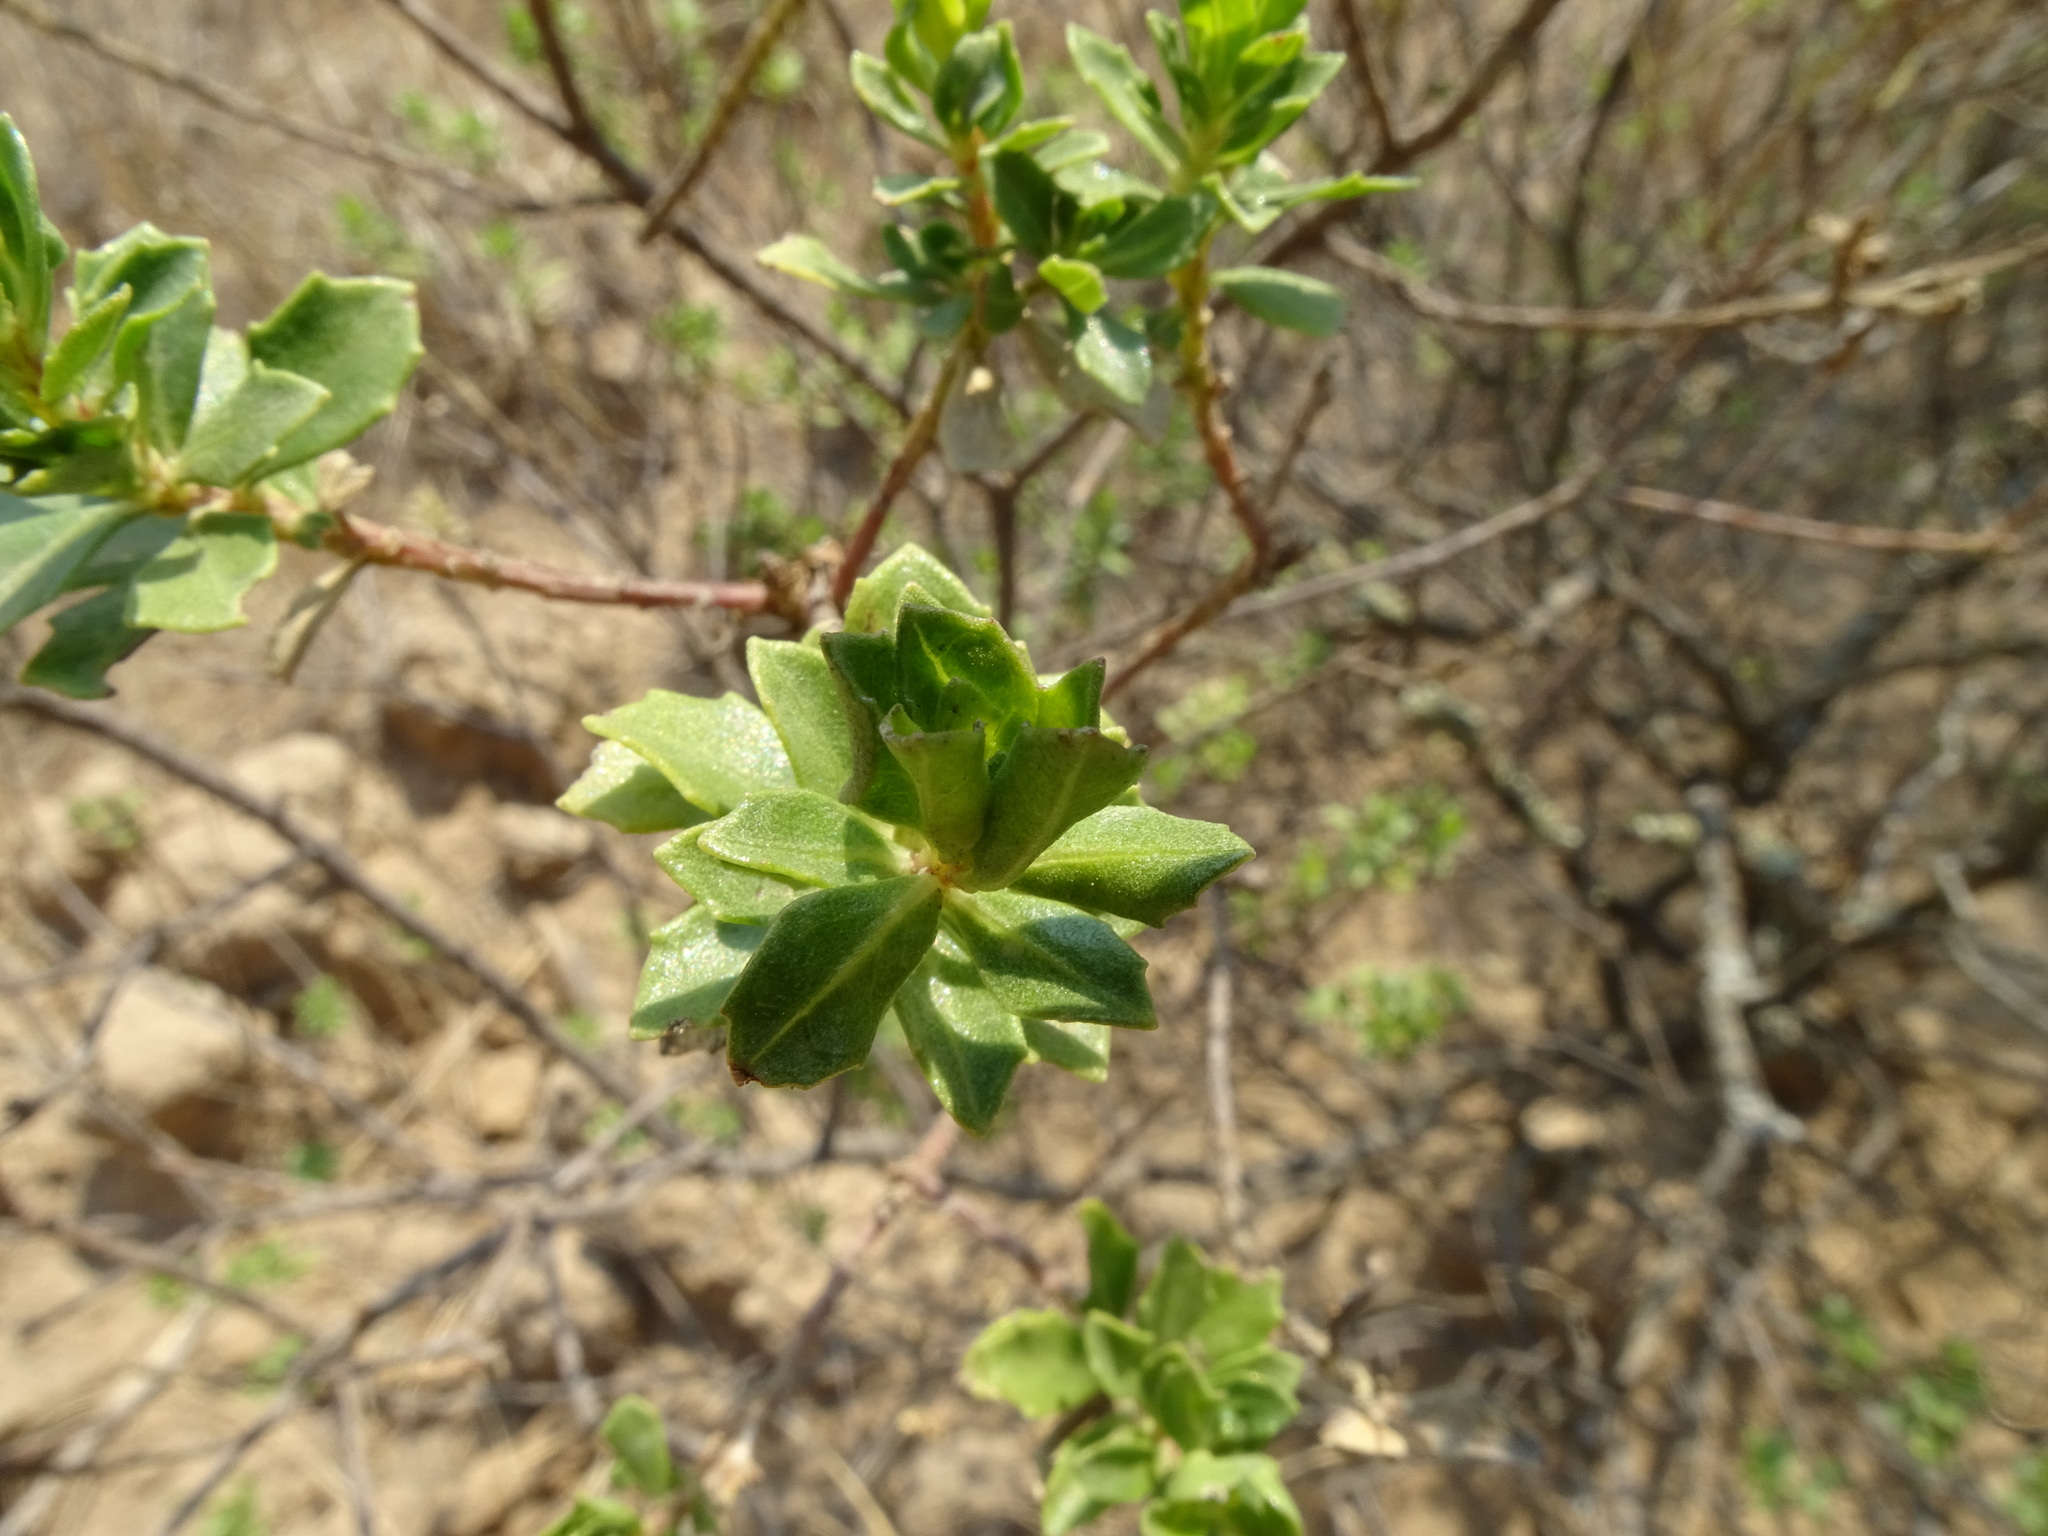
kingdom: Plantae
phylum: Tracheophyta
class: Magnoliopsida
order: Asterales
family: Asteraceae
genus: Baccharis
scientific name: Baccharis conferta
